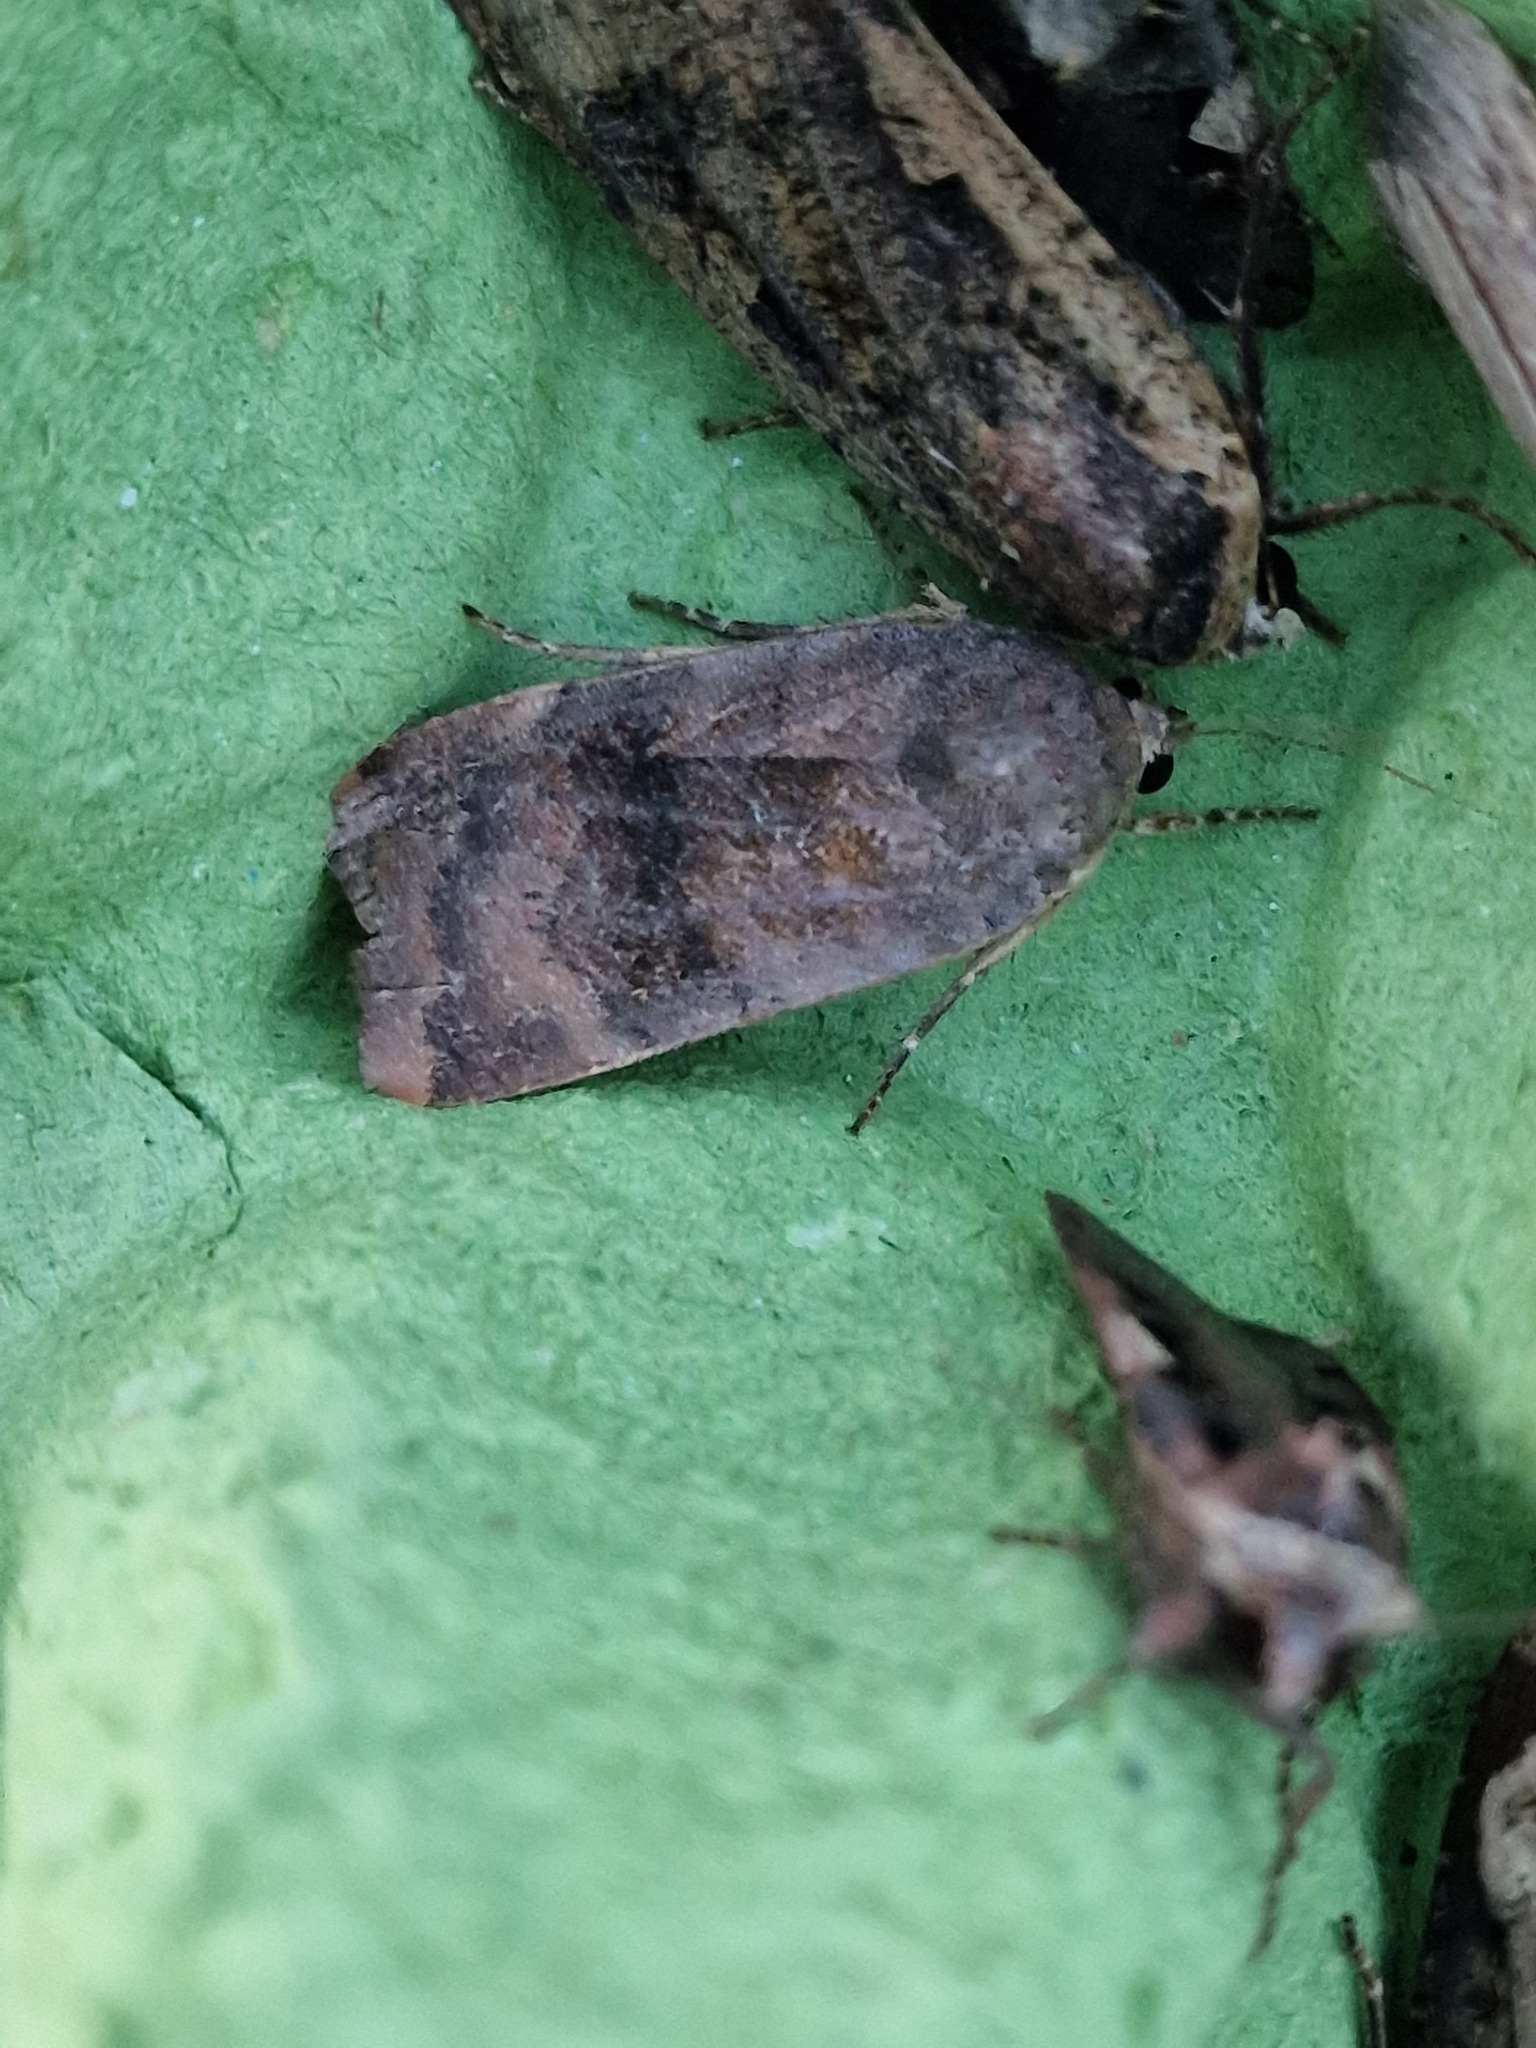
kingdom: Animalia
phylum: Arthropoda
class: Insecta
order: Lepidoptera
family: Noctuidae
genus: Noctua
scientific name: Noctua
